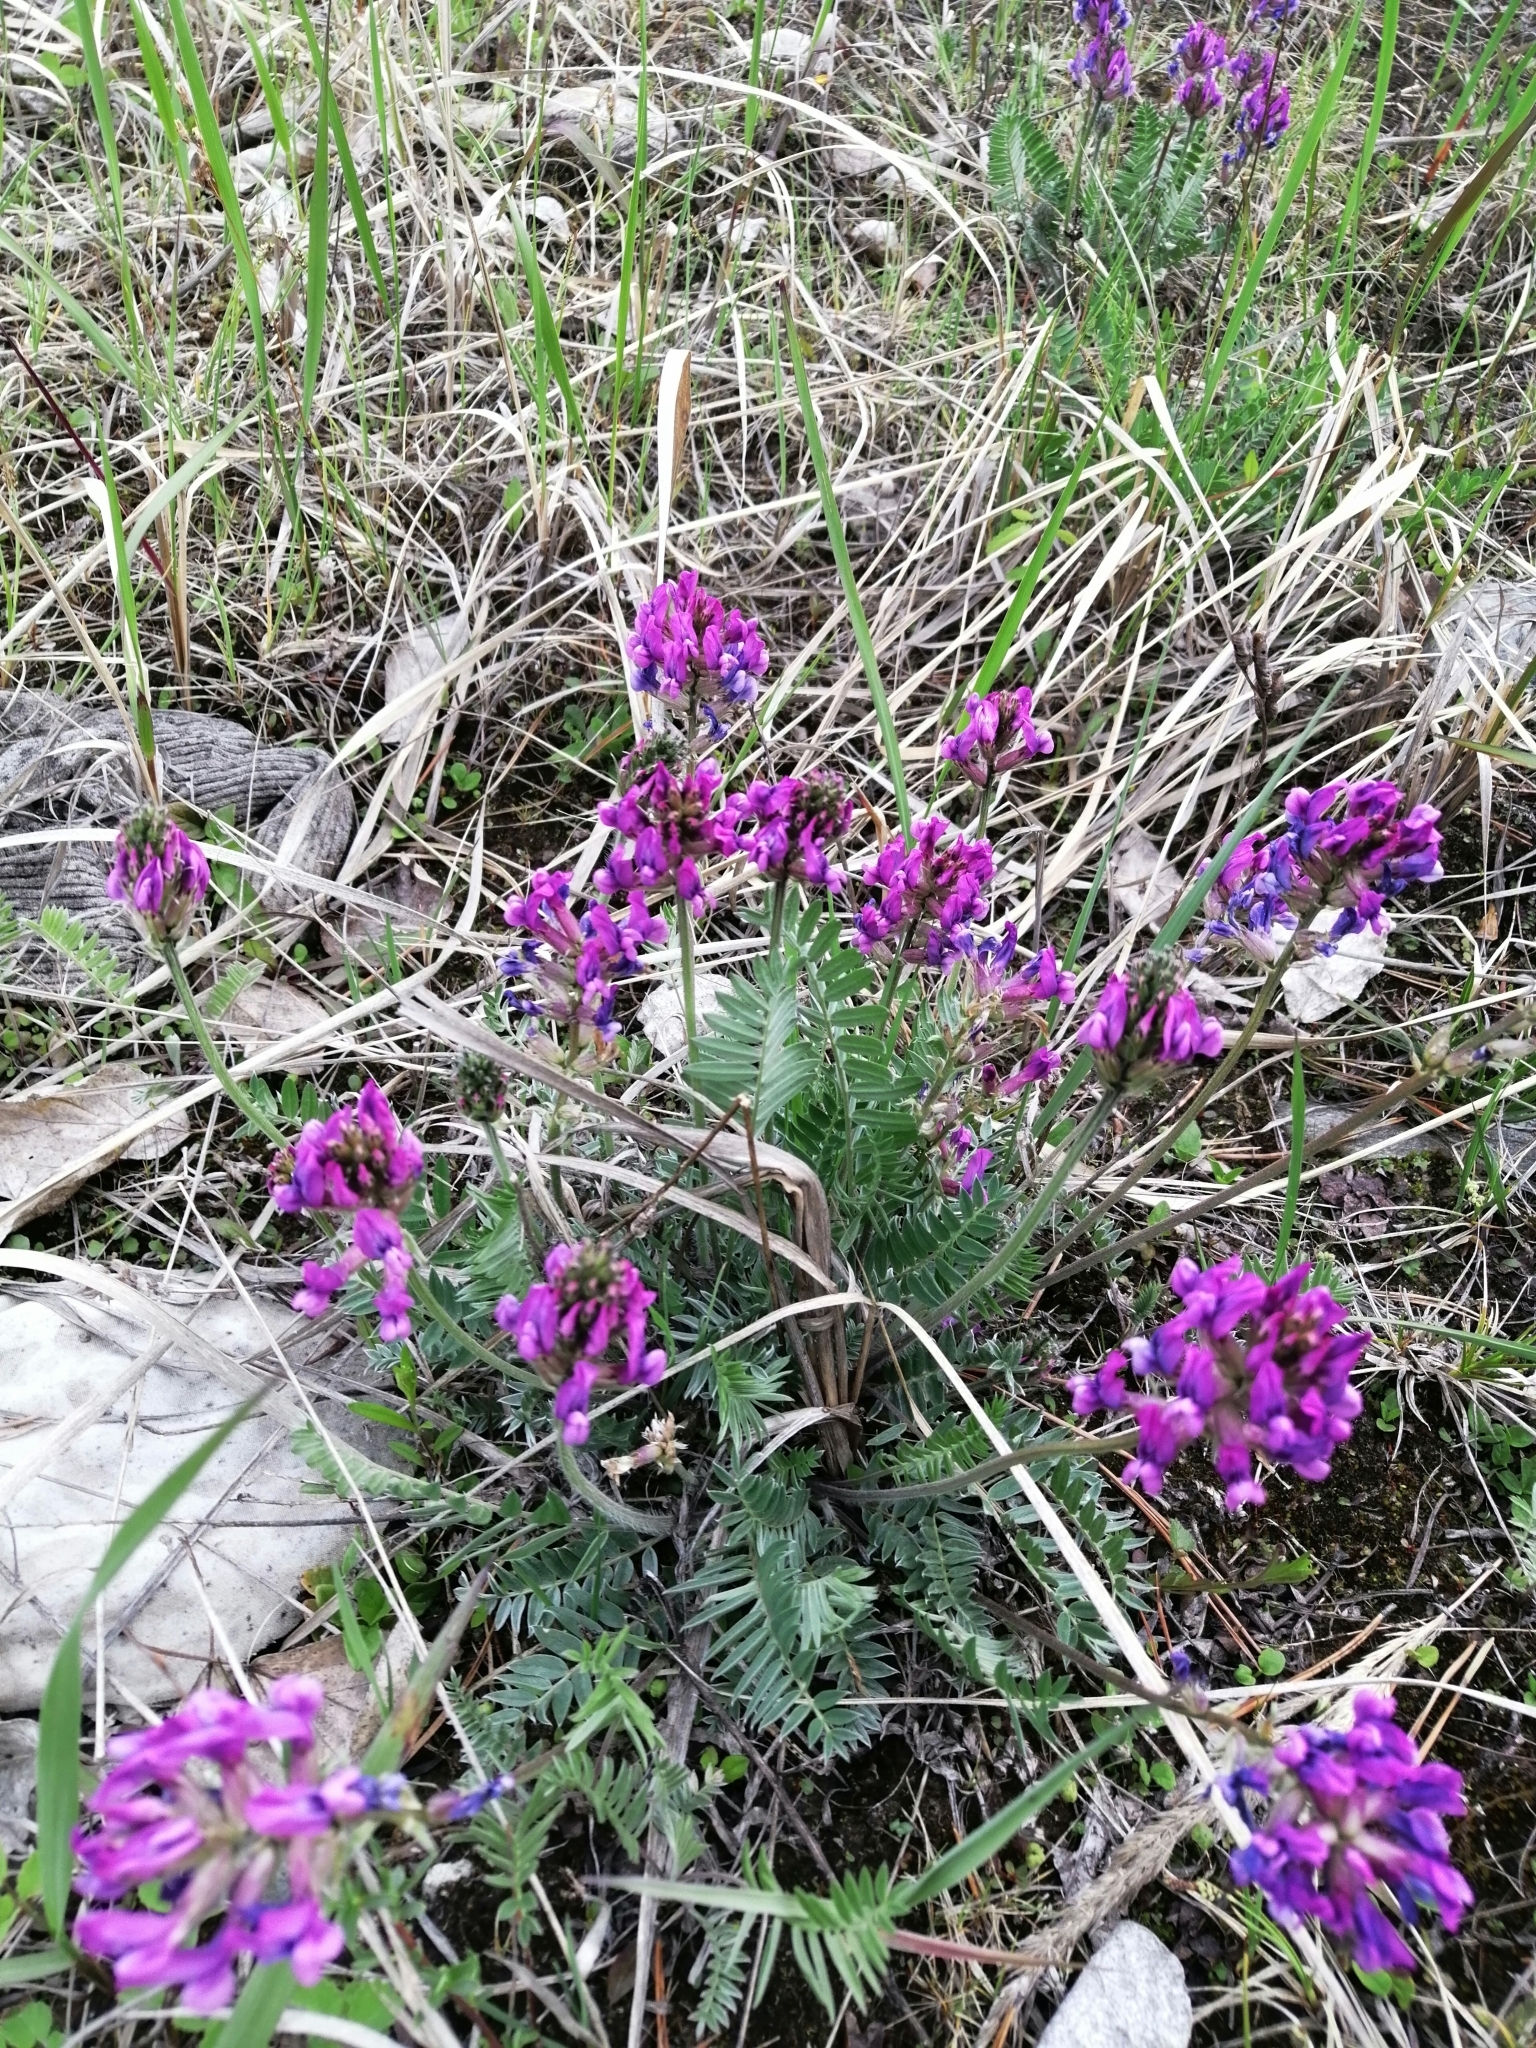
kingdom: Plantae
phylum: Tracheophyta
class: Magnoliopsida
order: Fabales
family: Fabaceae
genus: Oxytropis
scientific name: Oxytropis strobilacea
